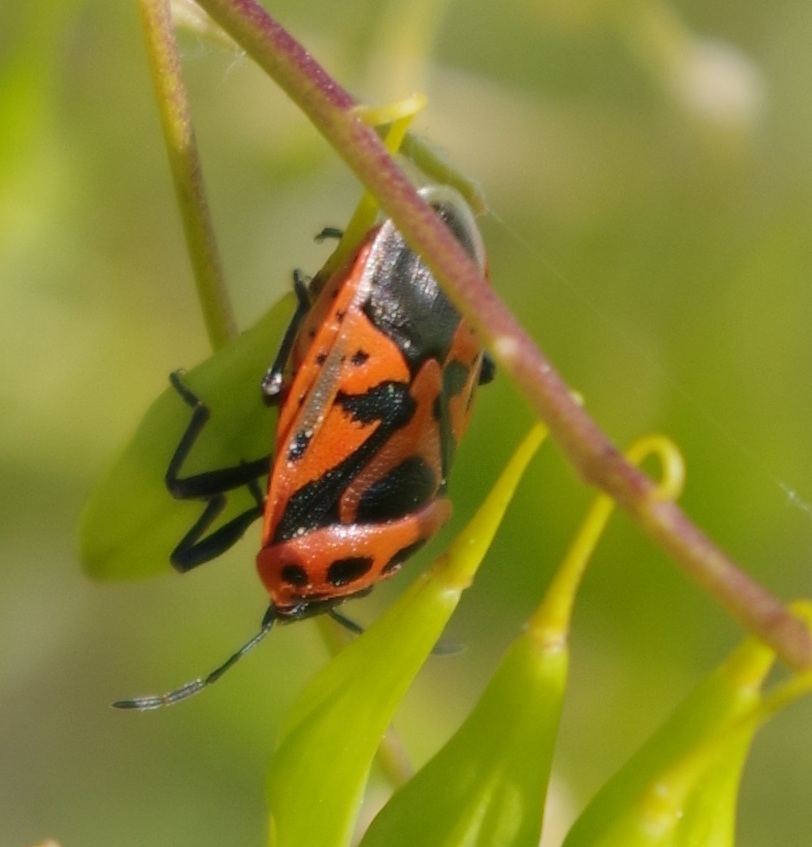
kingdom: Animalia
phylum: Arthropoda
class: Insecta
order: Hemiptera
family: Pentatomidae
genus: Eurydema
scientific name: Eurydema ornata
